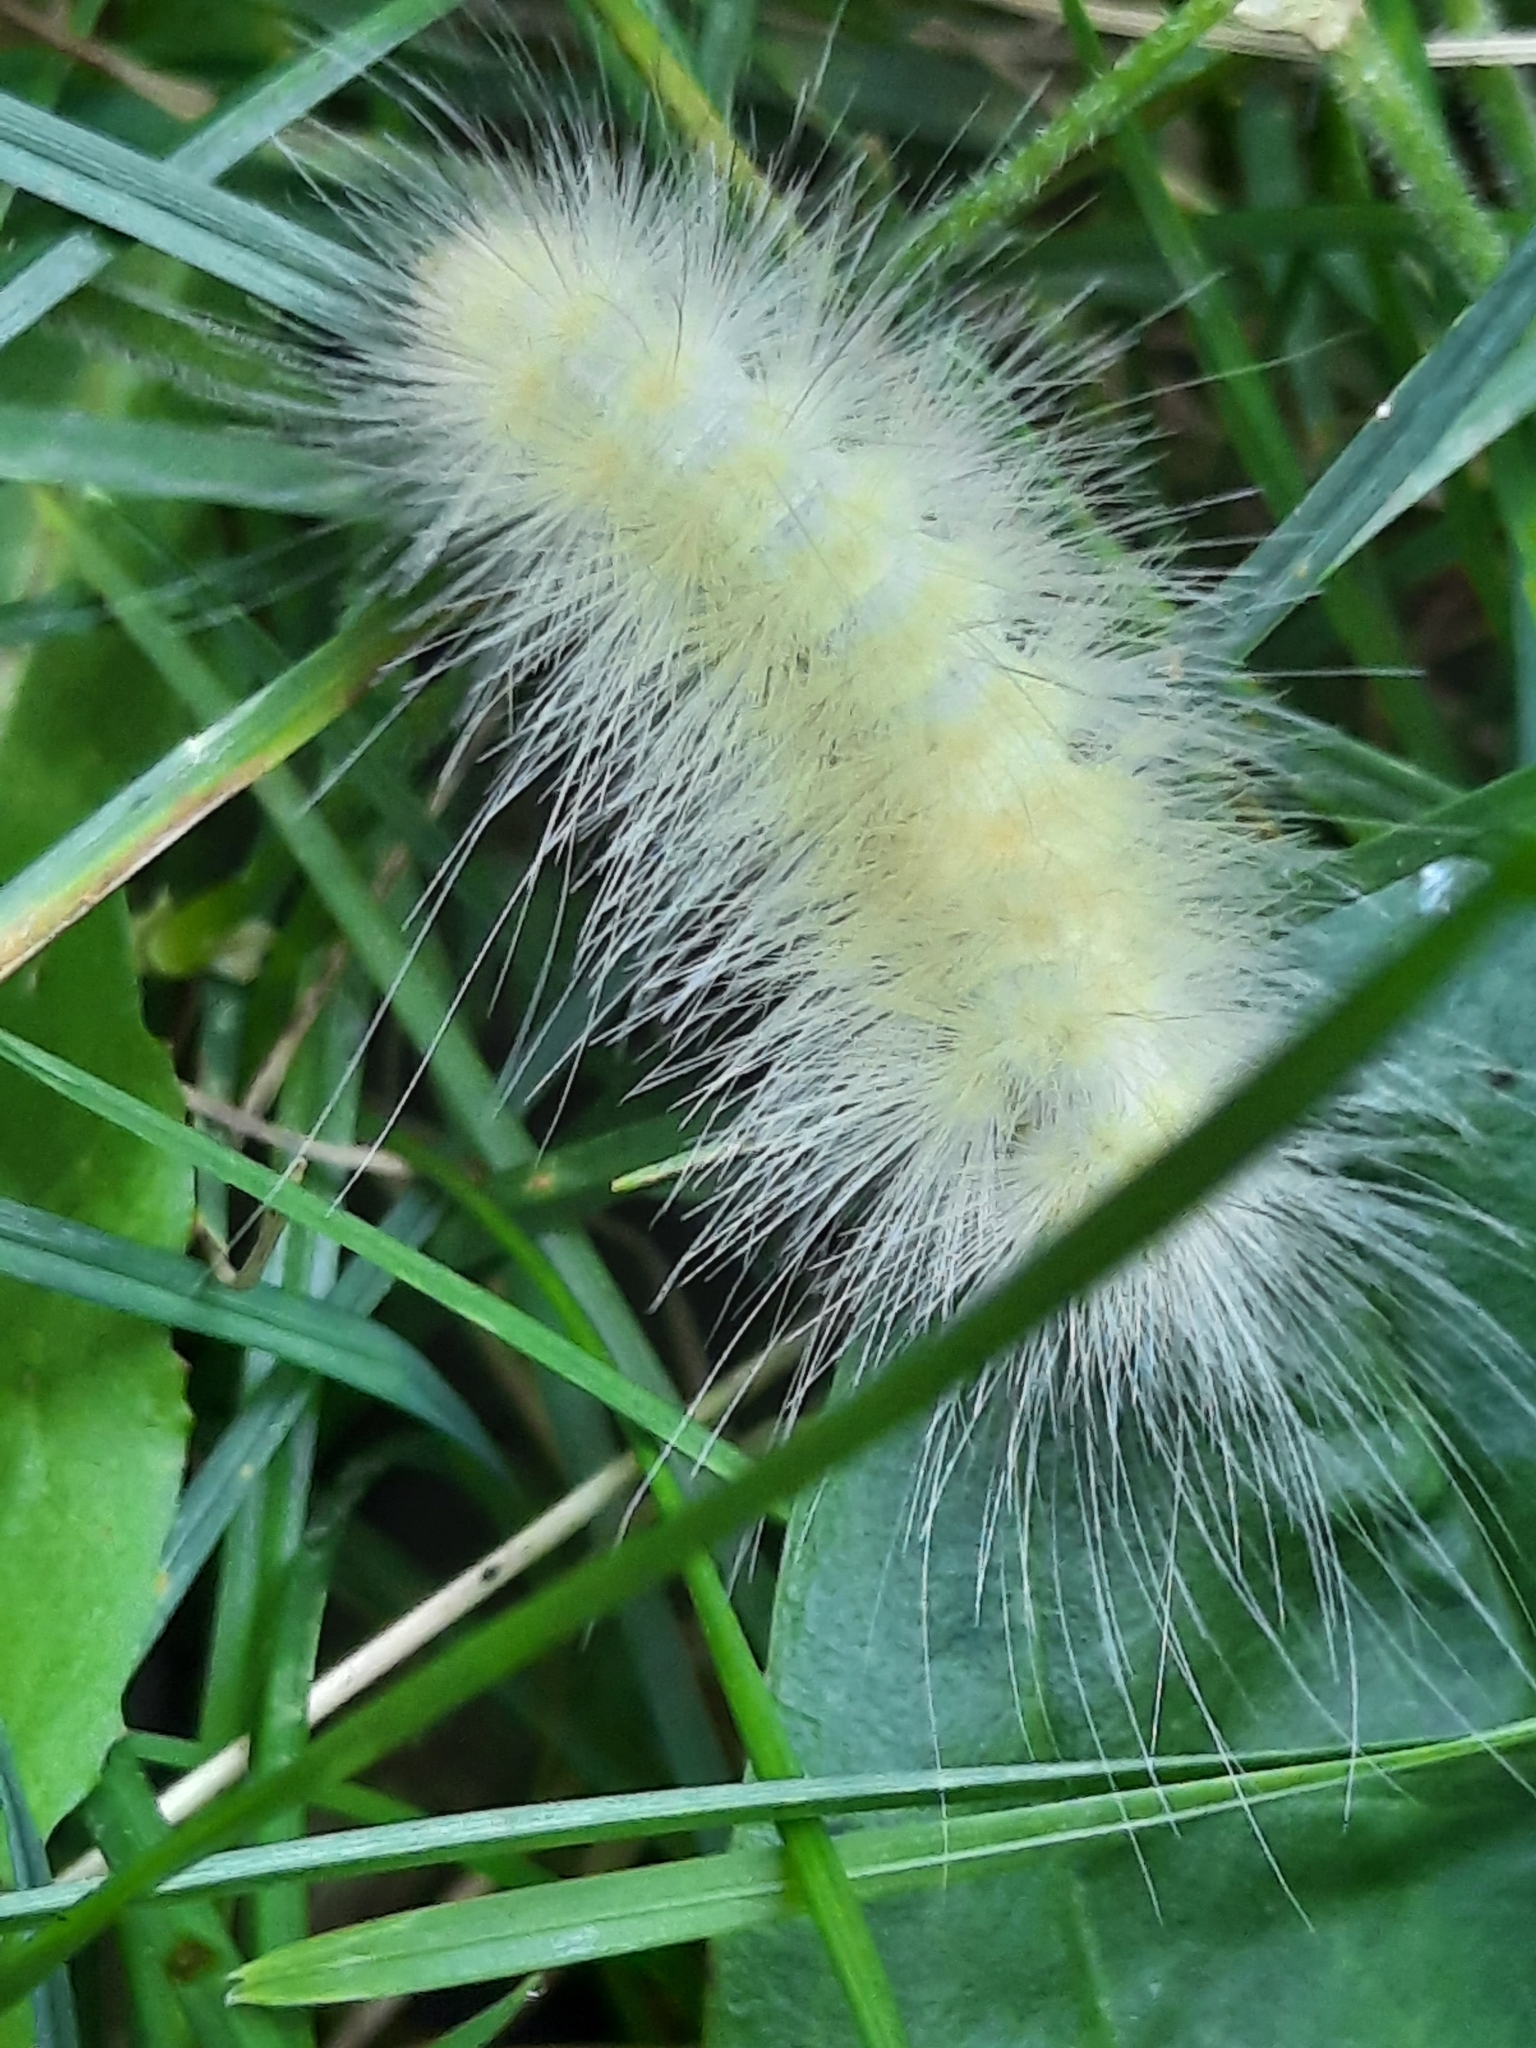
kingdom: Animalia
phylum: Arthropoda
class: Insecta
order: Lepidoptera
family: Erebidae
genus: Spilosoma
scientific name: Spilosoma virginica
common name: Virginia tiger moth
